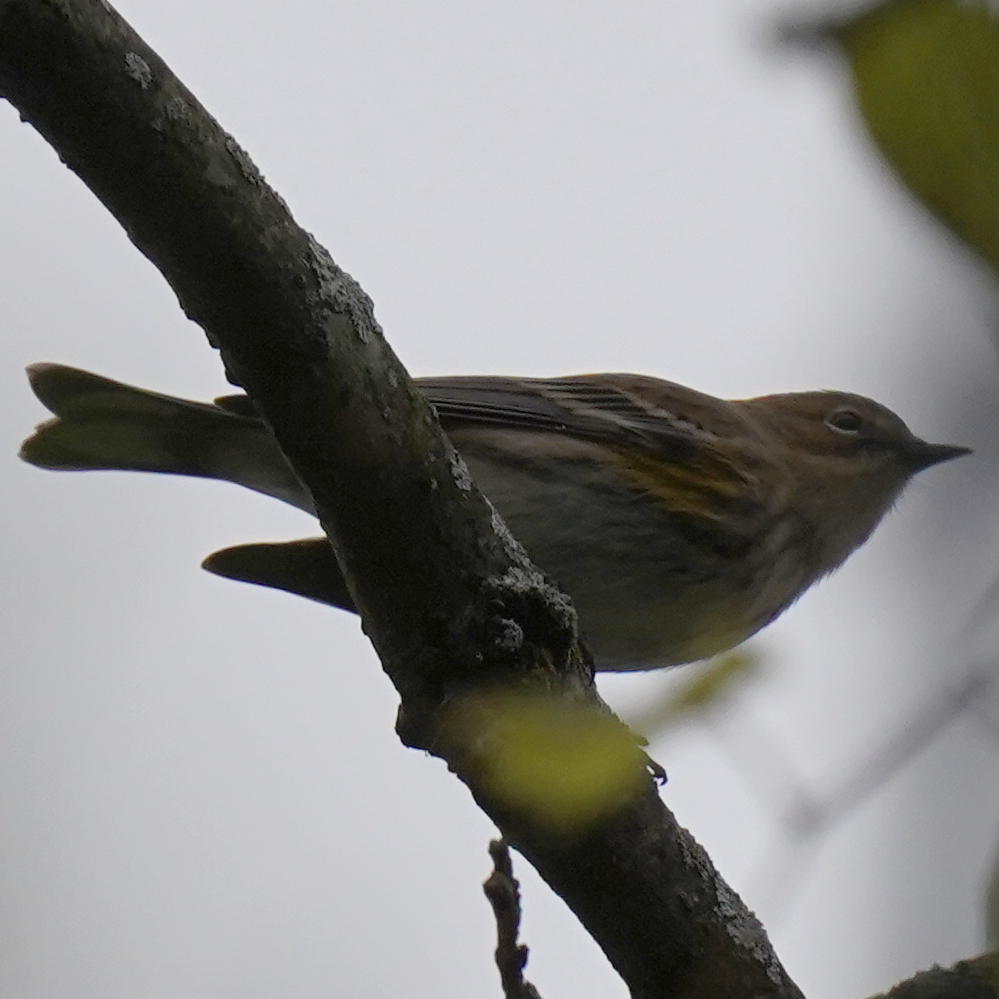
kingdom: Animalia
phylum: Chordata
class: Aves
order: Passeriformes
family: Parulidae
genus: Setophaga
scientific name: Setophaga coronata
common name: Myrtle warbler
